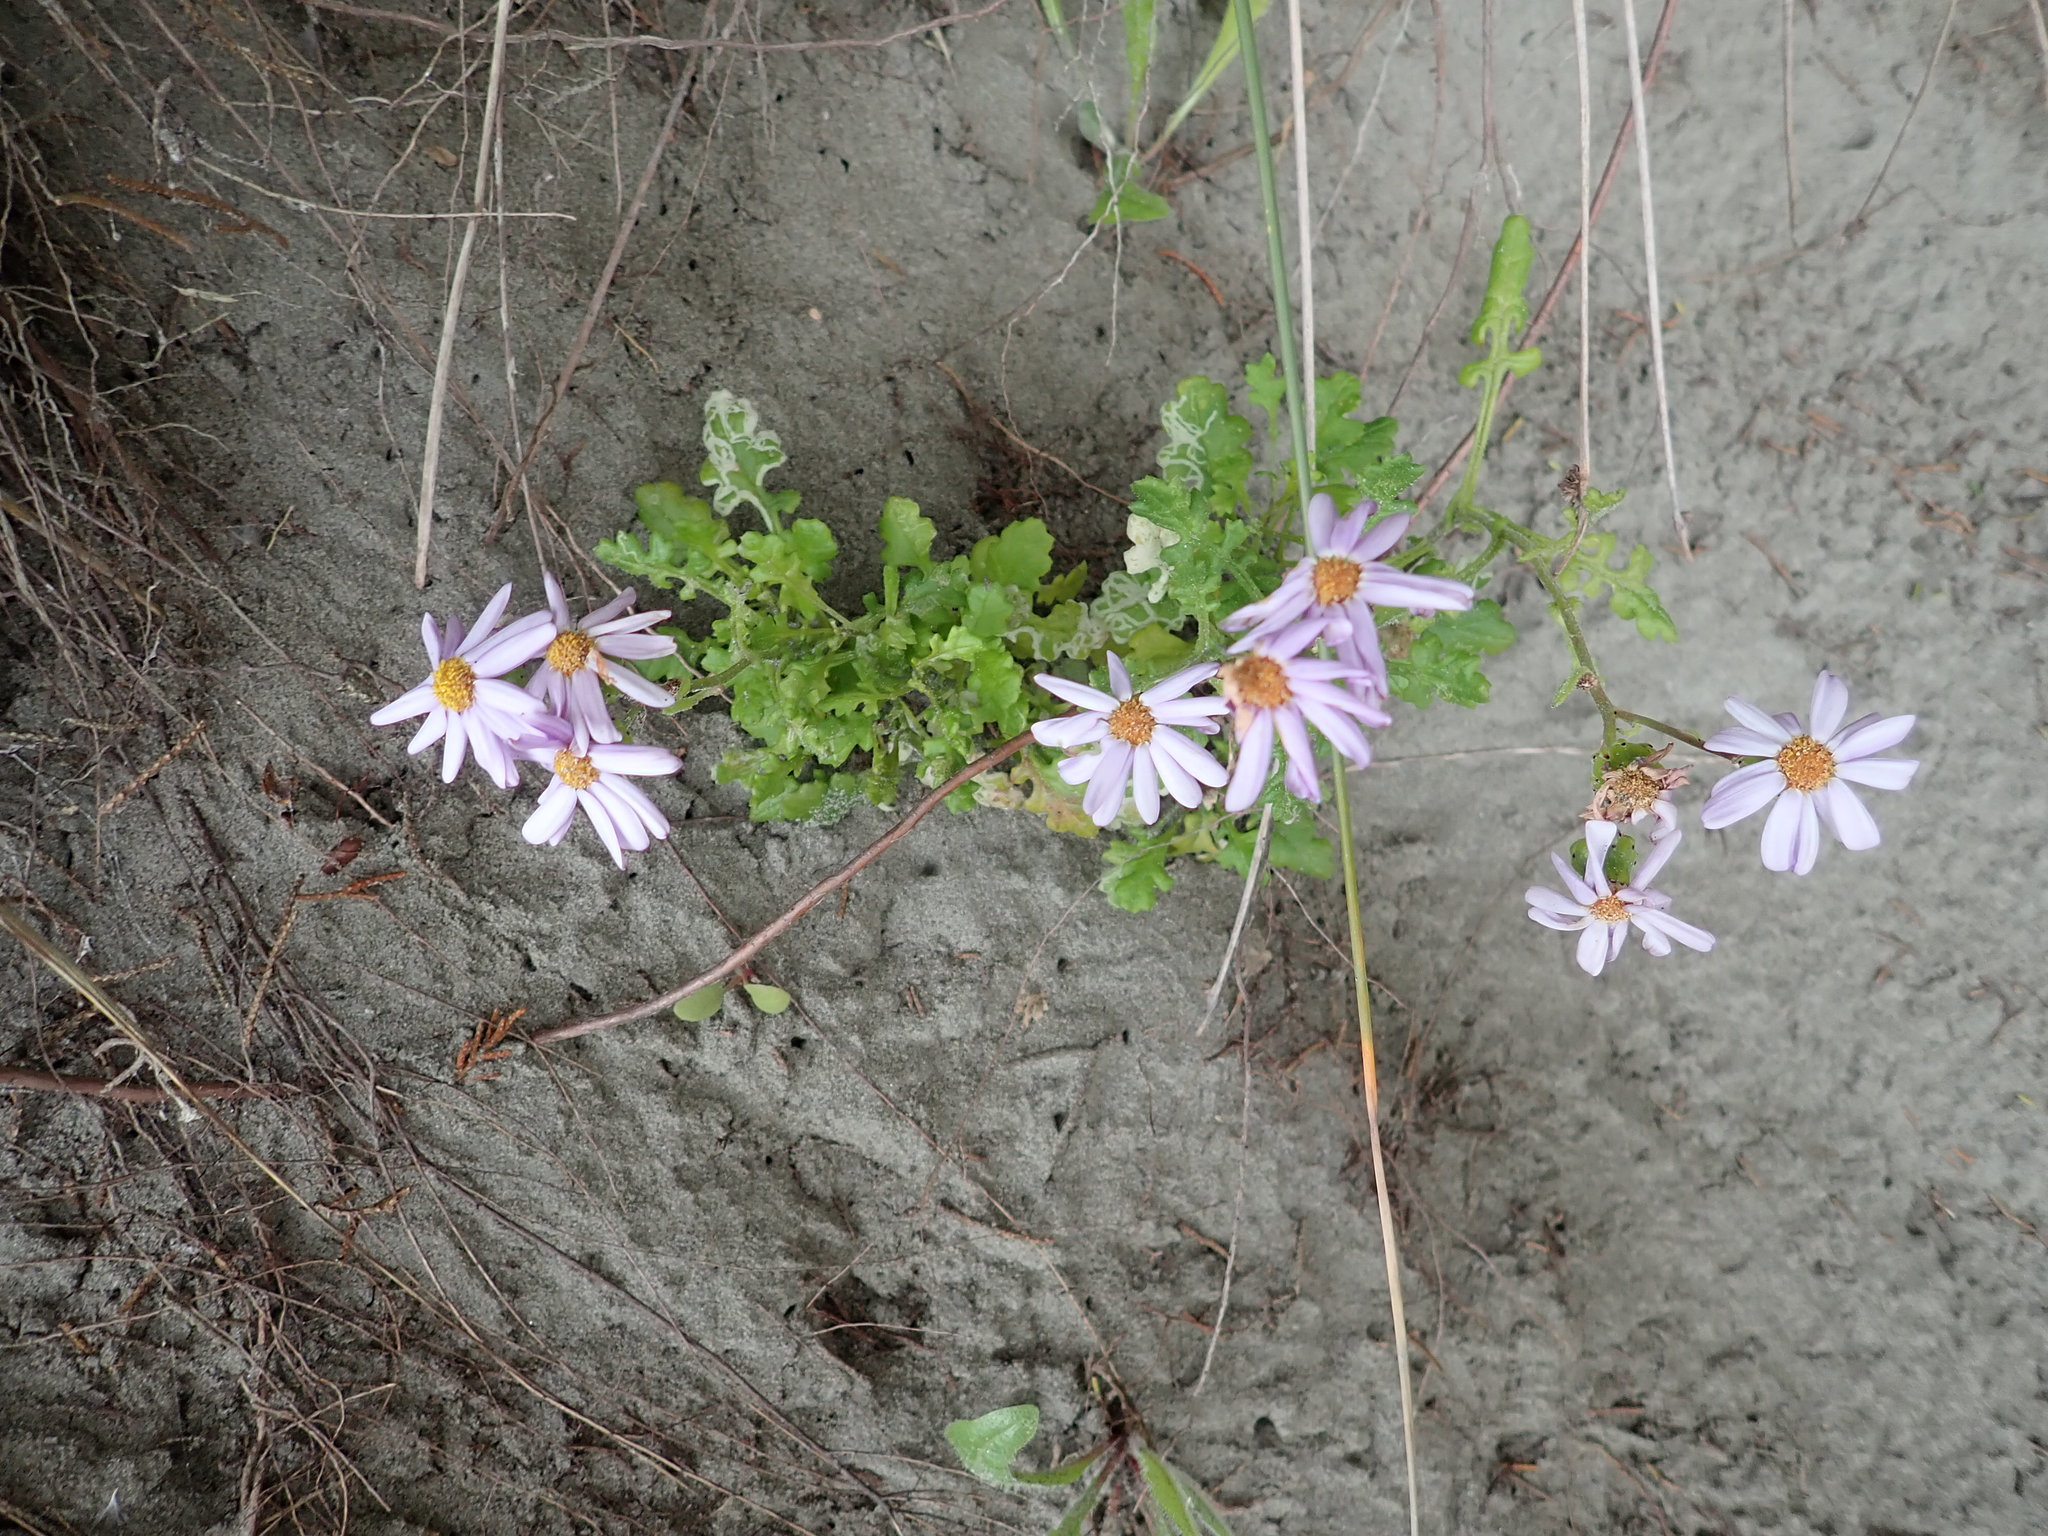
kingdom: Plantae
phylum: Tracheophyta
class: Magnoliopsida
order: Asterales
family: Asteraceae
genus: Senecio
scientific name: Senecio elegans
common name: Purple groundsel
